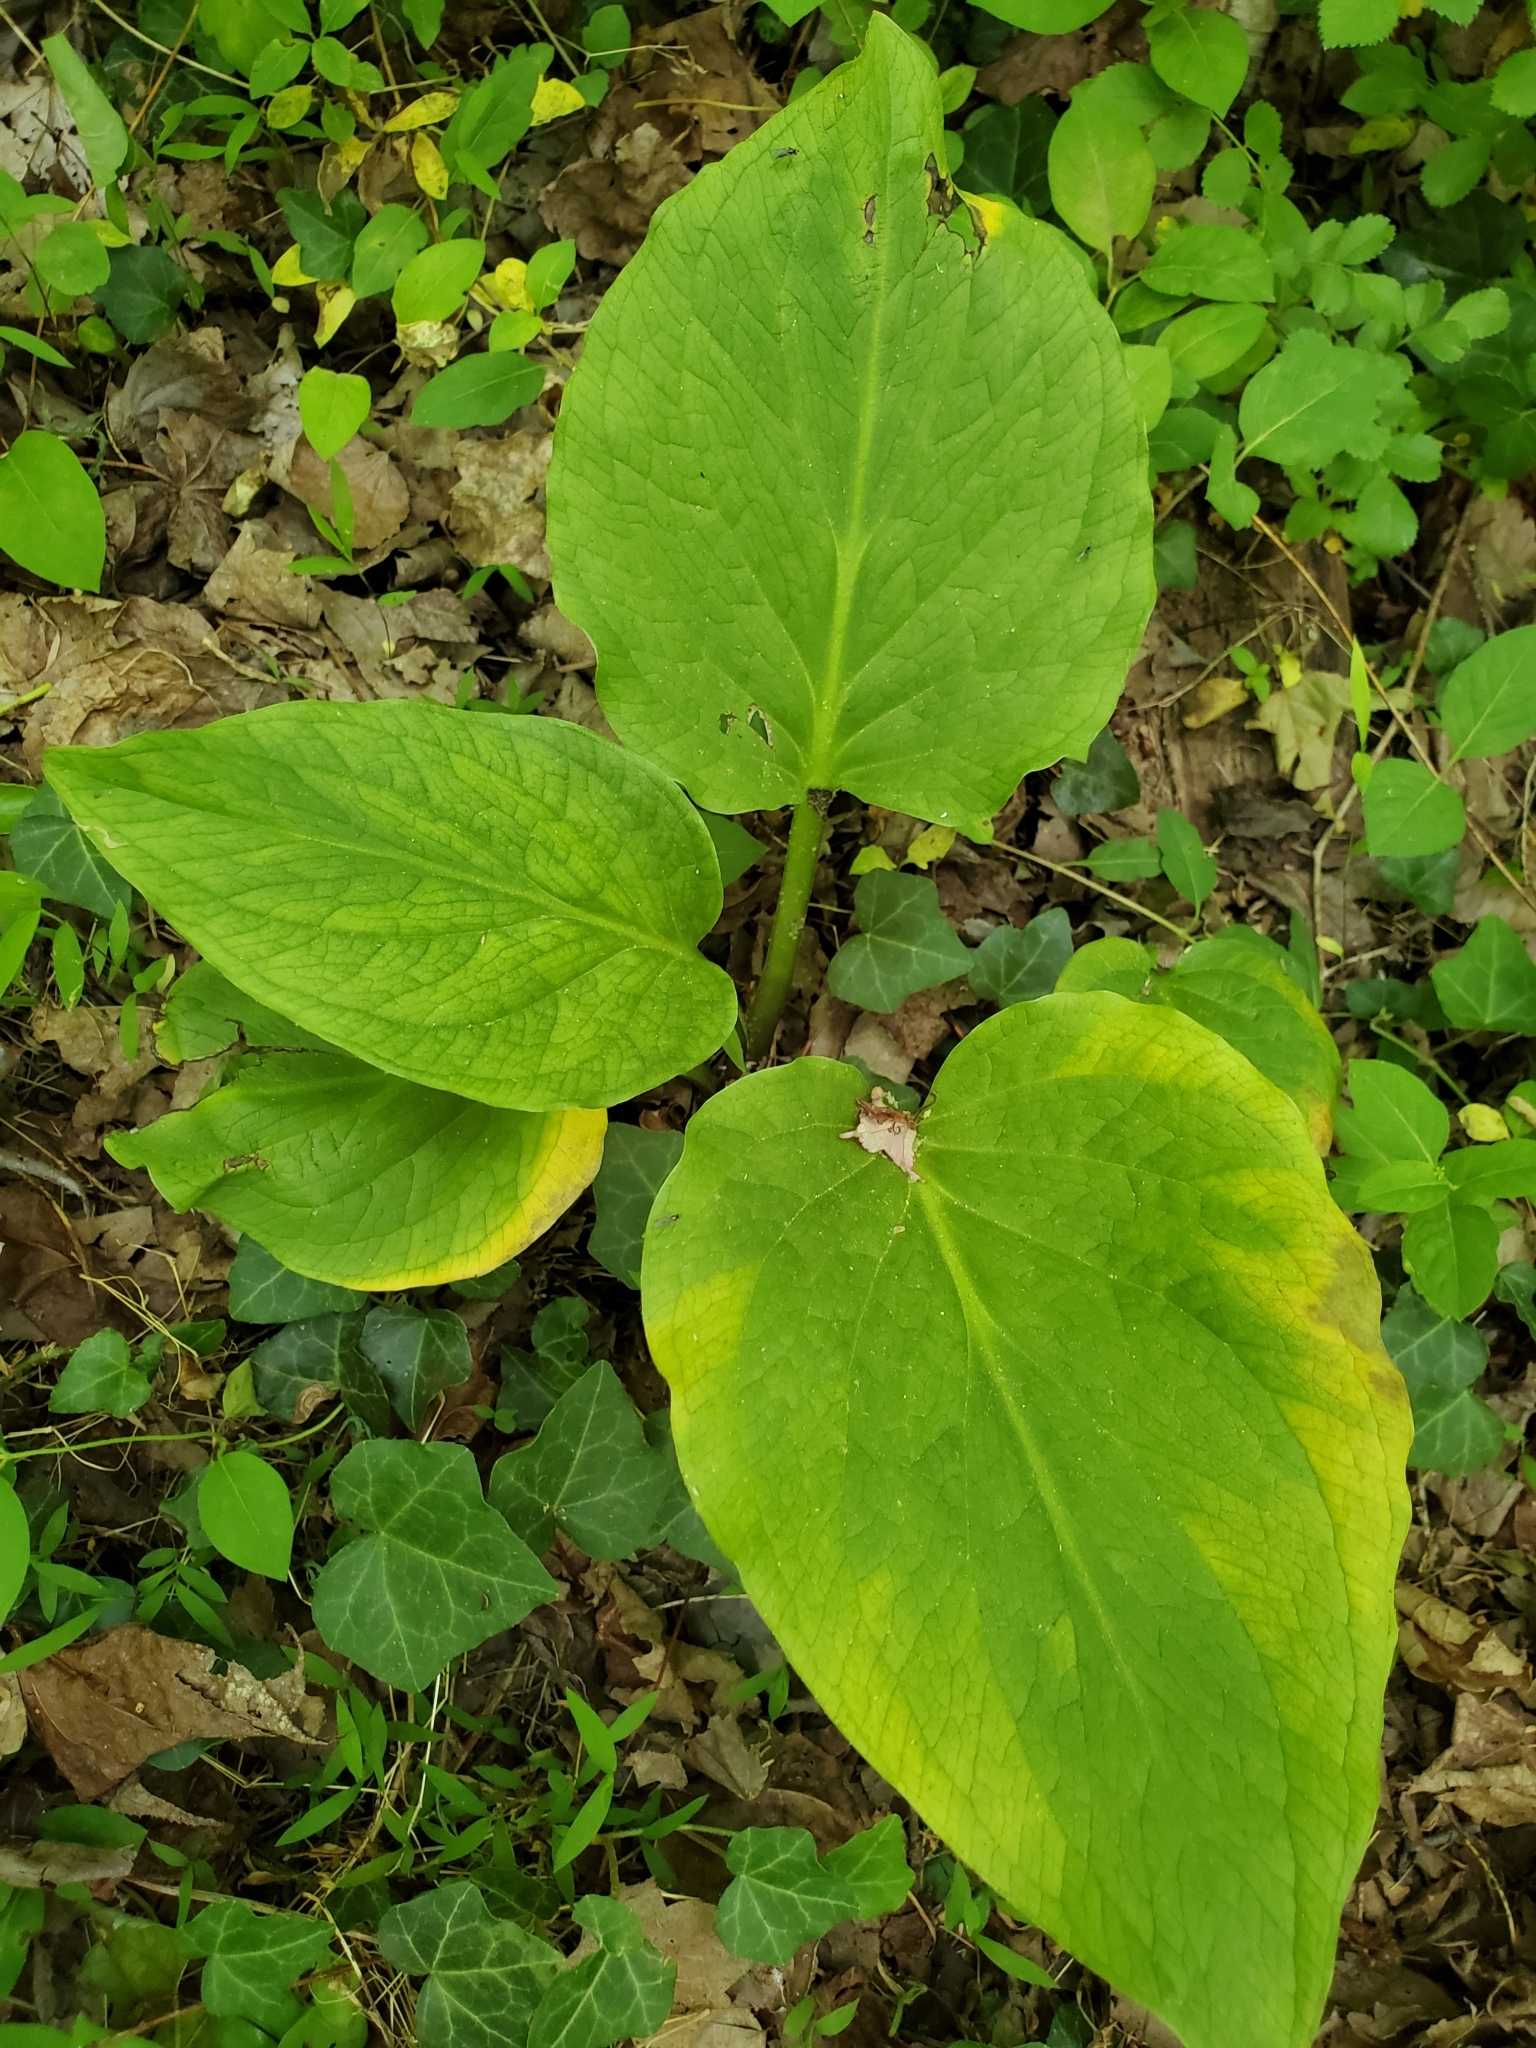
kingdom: Plantae
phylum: Tracheophyta
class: Liliopsida
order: Alismatales
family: Araceae
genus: Symplocarpus
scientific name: Symplocarpus foetidus
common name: Eastern skunk cabbage
